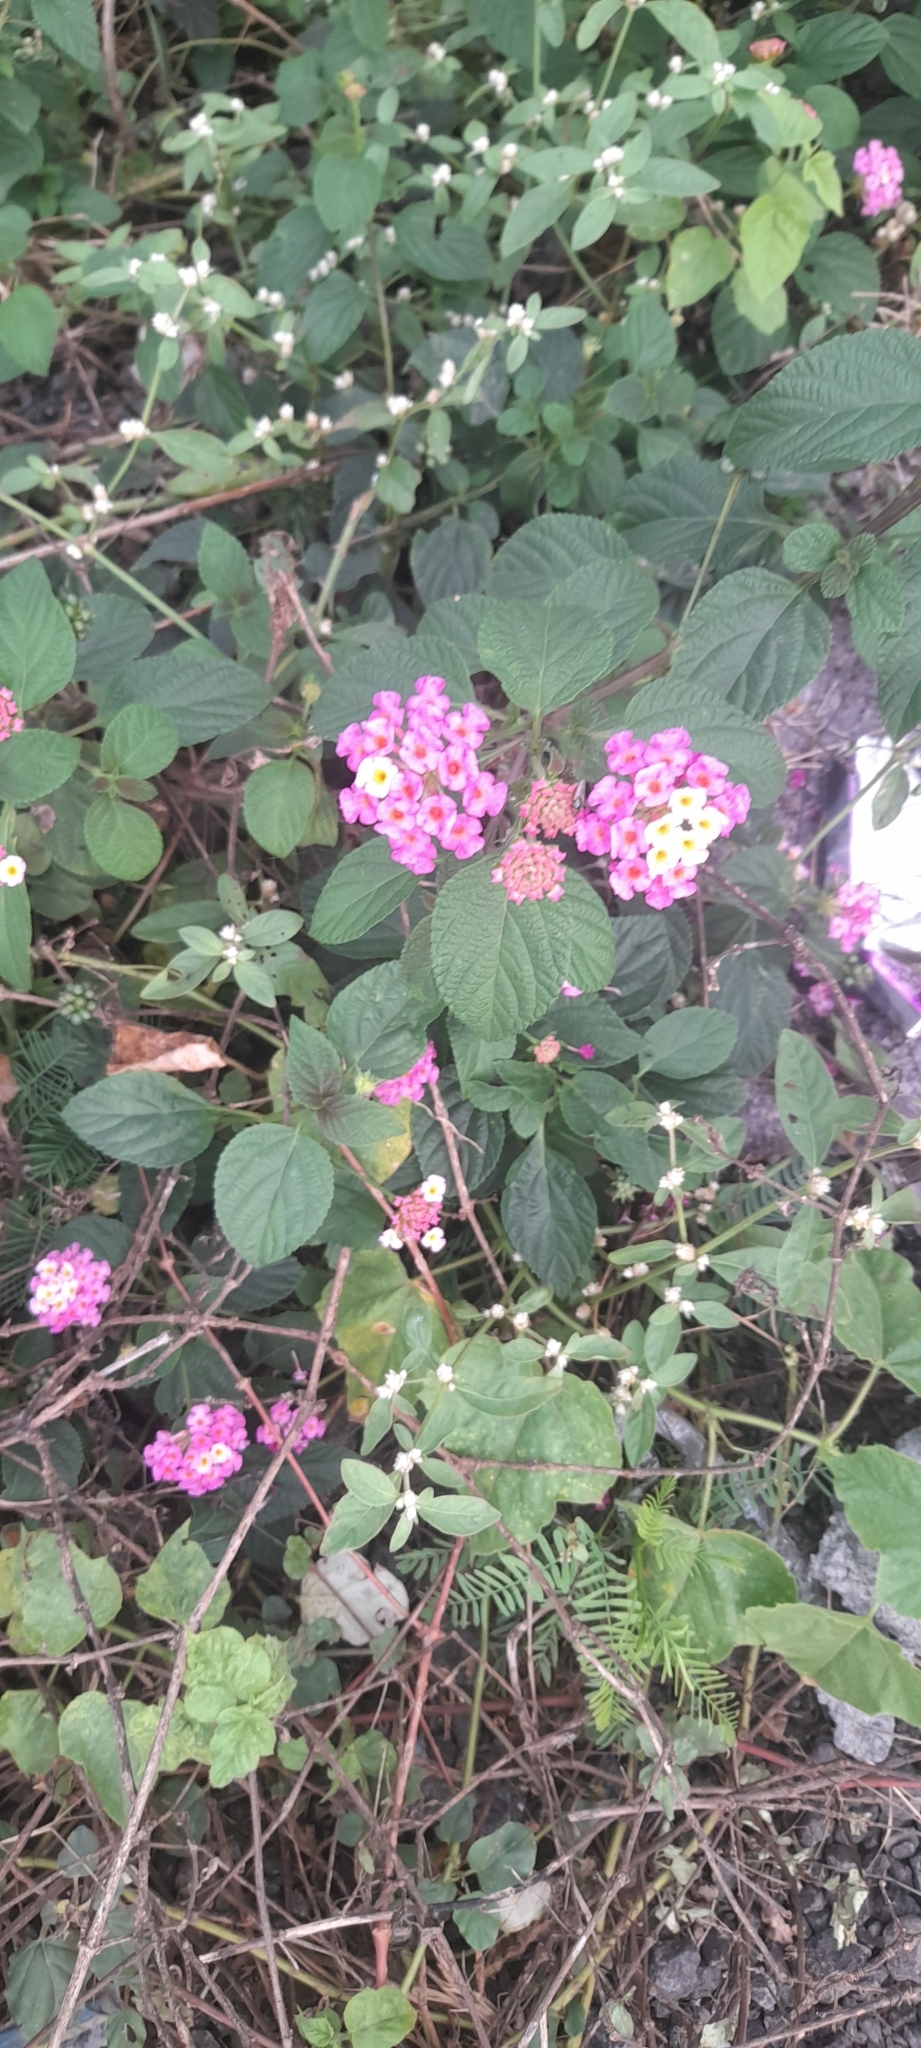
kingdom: Plantae
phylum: Tracheophyta
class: Magnoliopsida
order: Lamiales
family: Verbenaceae
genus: Lantana
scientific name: Lantana camara
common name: Lantana
